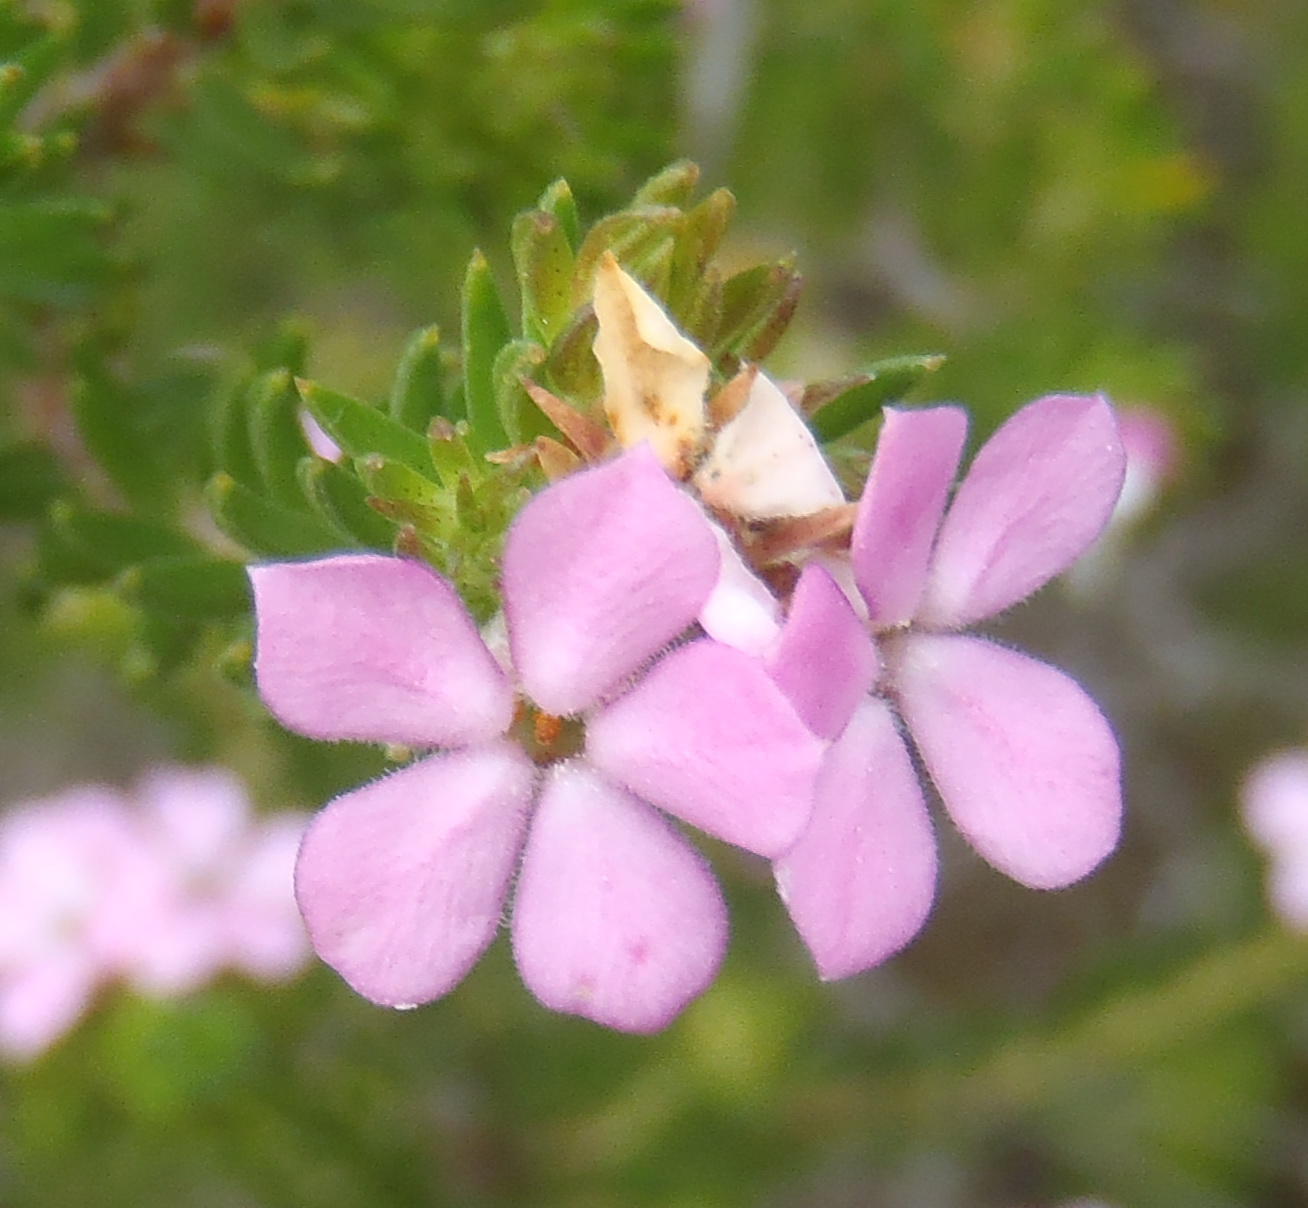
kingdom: Plantae
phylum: Tracheophyta
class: Magnoliopsida
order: Sapindales
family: Rutaceae
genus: Acmadenia
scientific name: Acmadenia alternifolia
